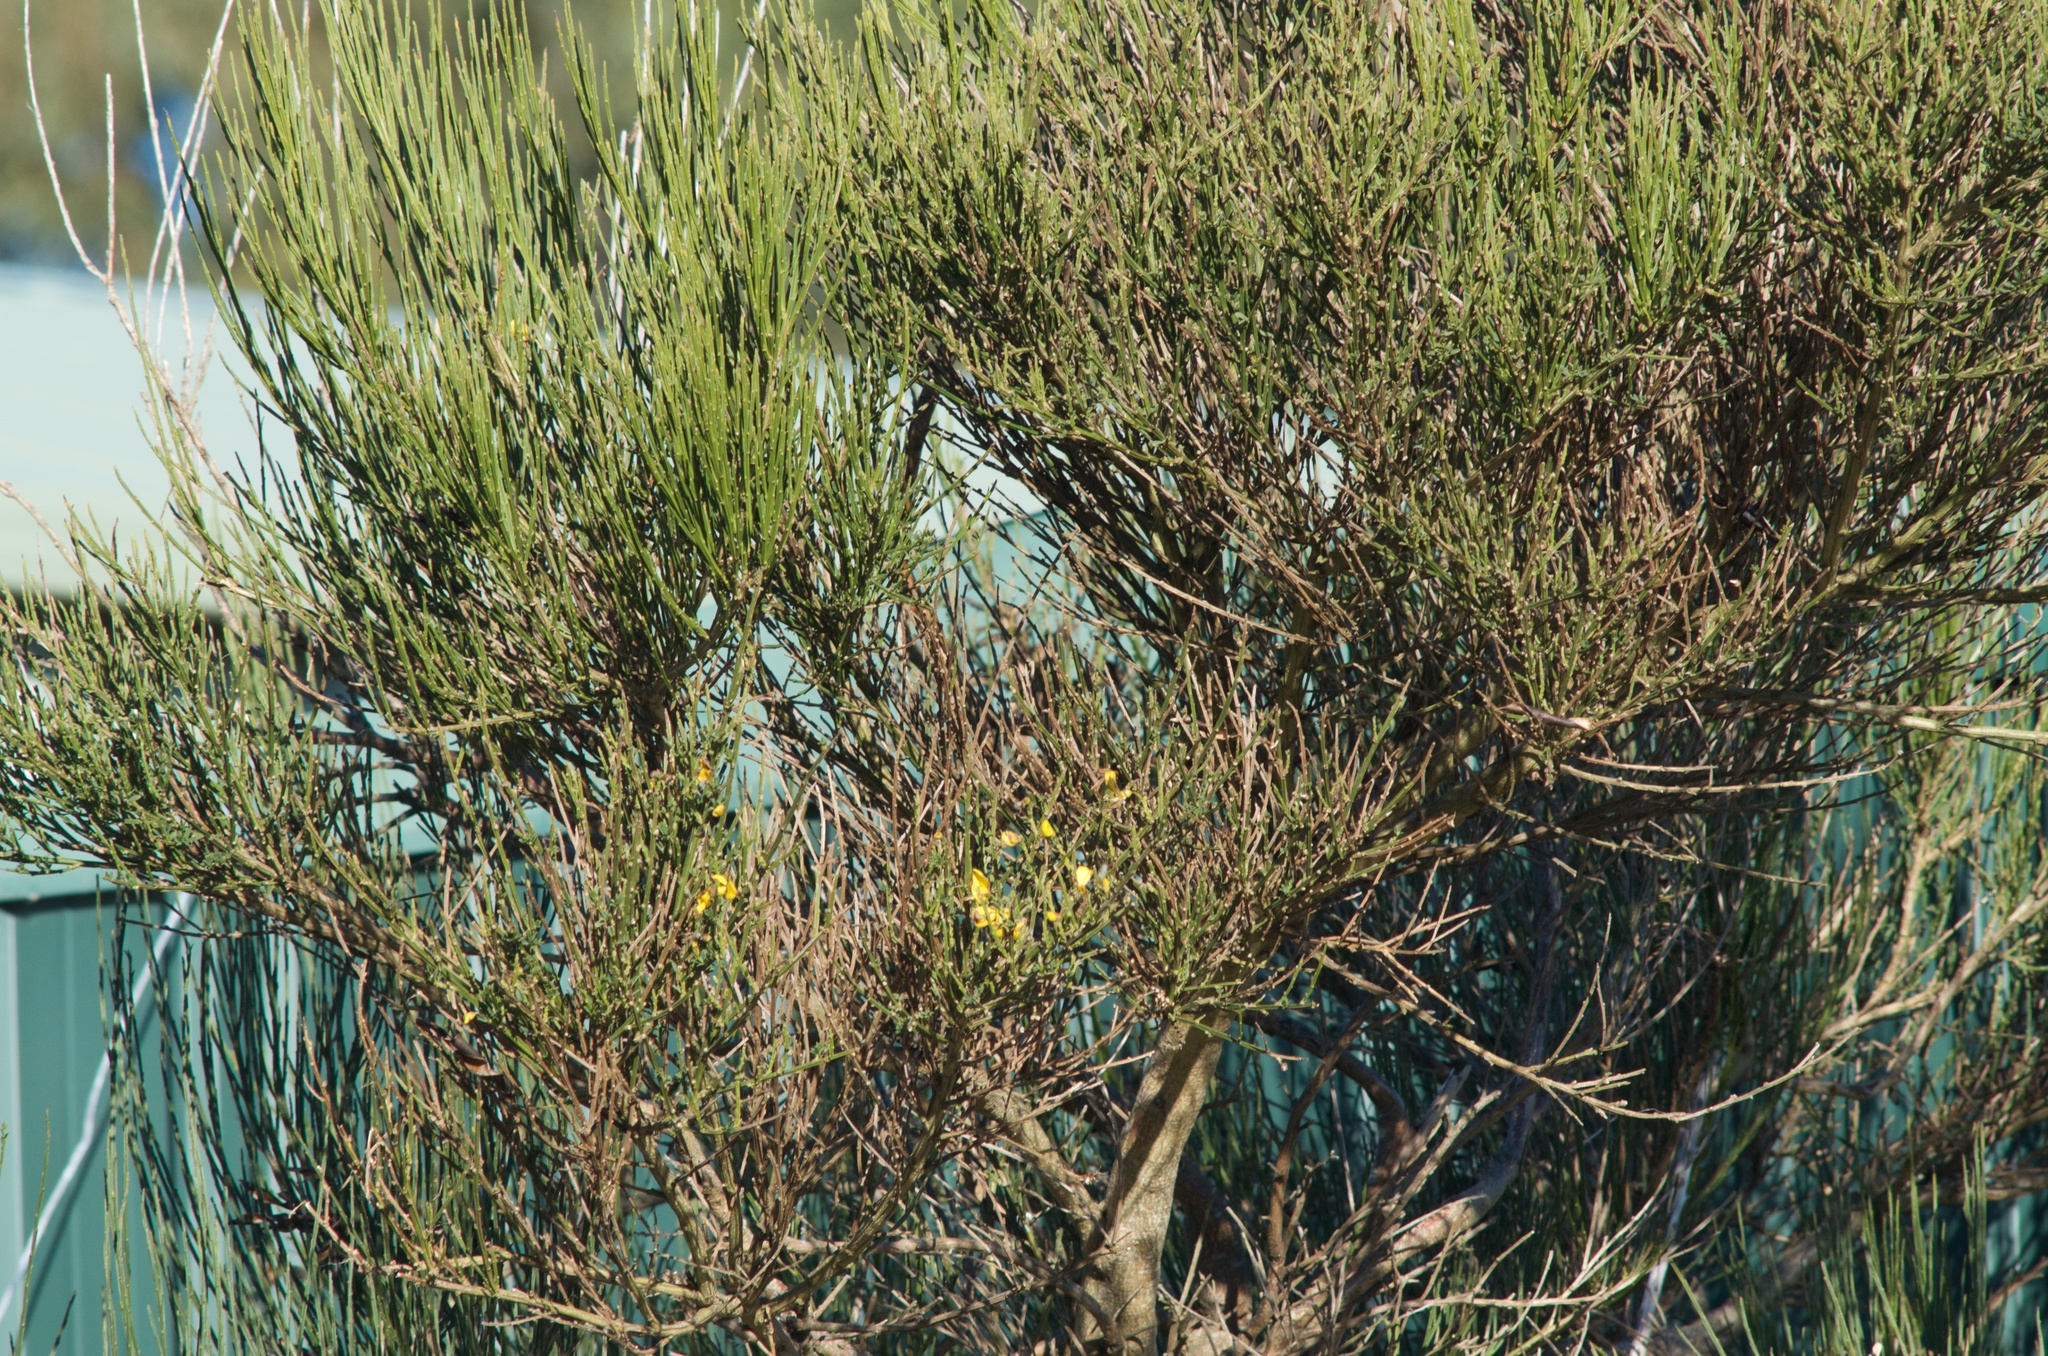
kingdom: Plantae
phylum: Tracheophyta
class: Magnoliopsida
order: Fabales
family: Fabaceae
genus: Cytisus
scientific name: Cytisus scoparius
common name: Scotch broom
